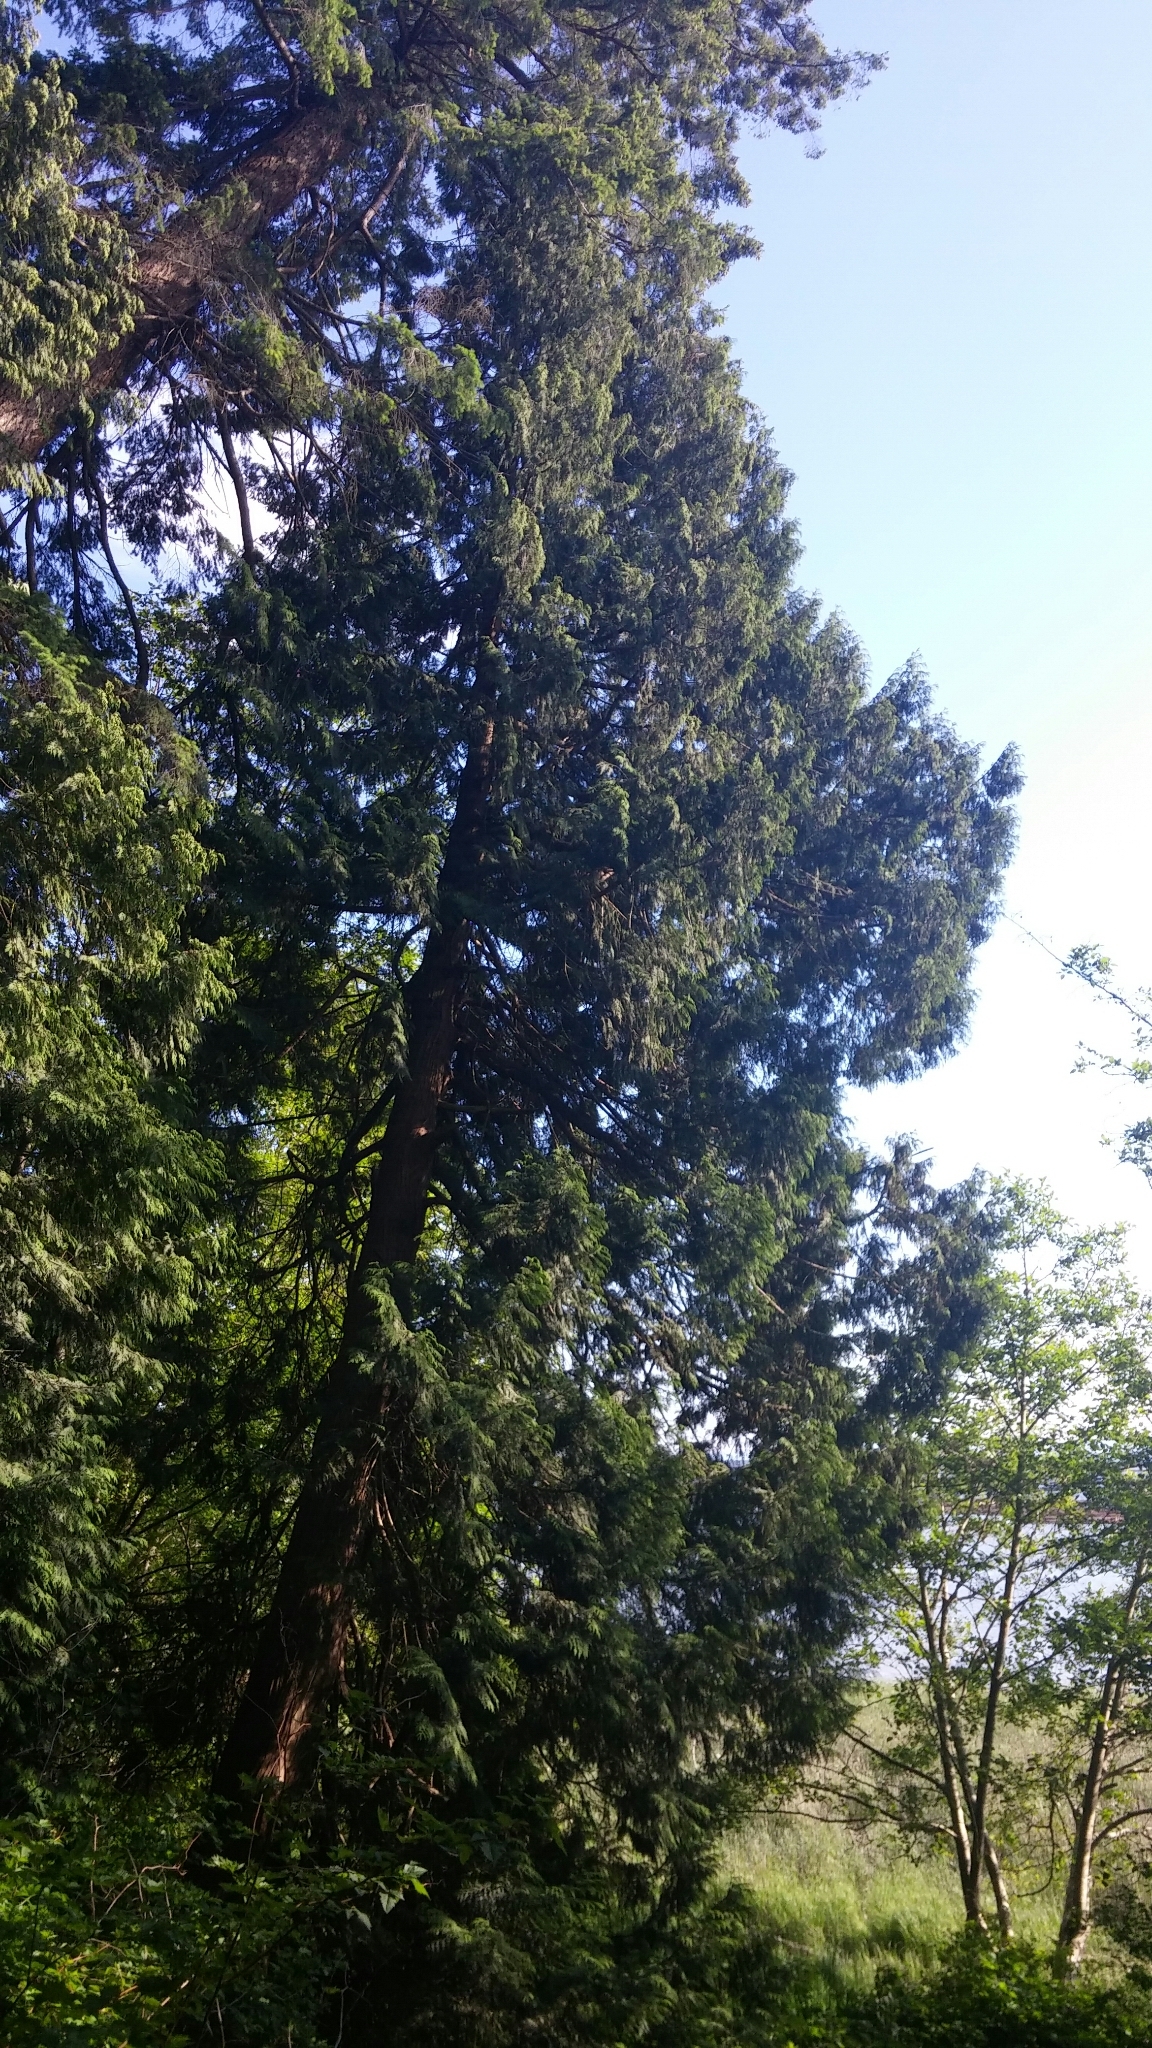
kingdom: Plantae
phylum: Tracheophyta
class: Pinopsida
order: Pinales
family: Cupressaceae
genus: Thuja
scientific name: Thuja plicata
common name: Western red-cedar
